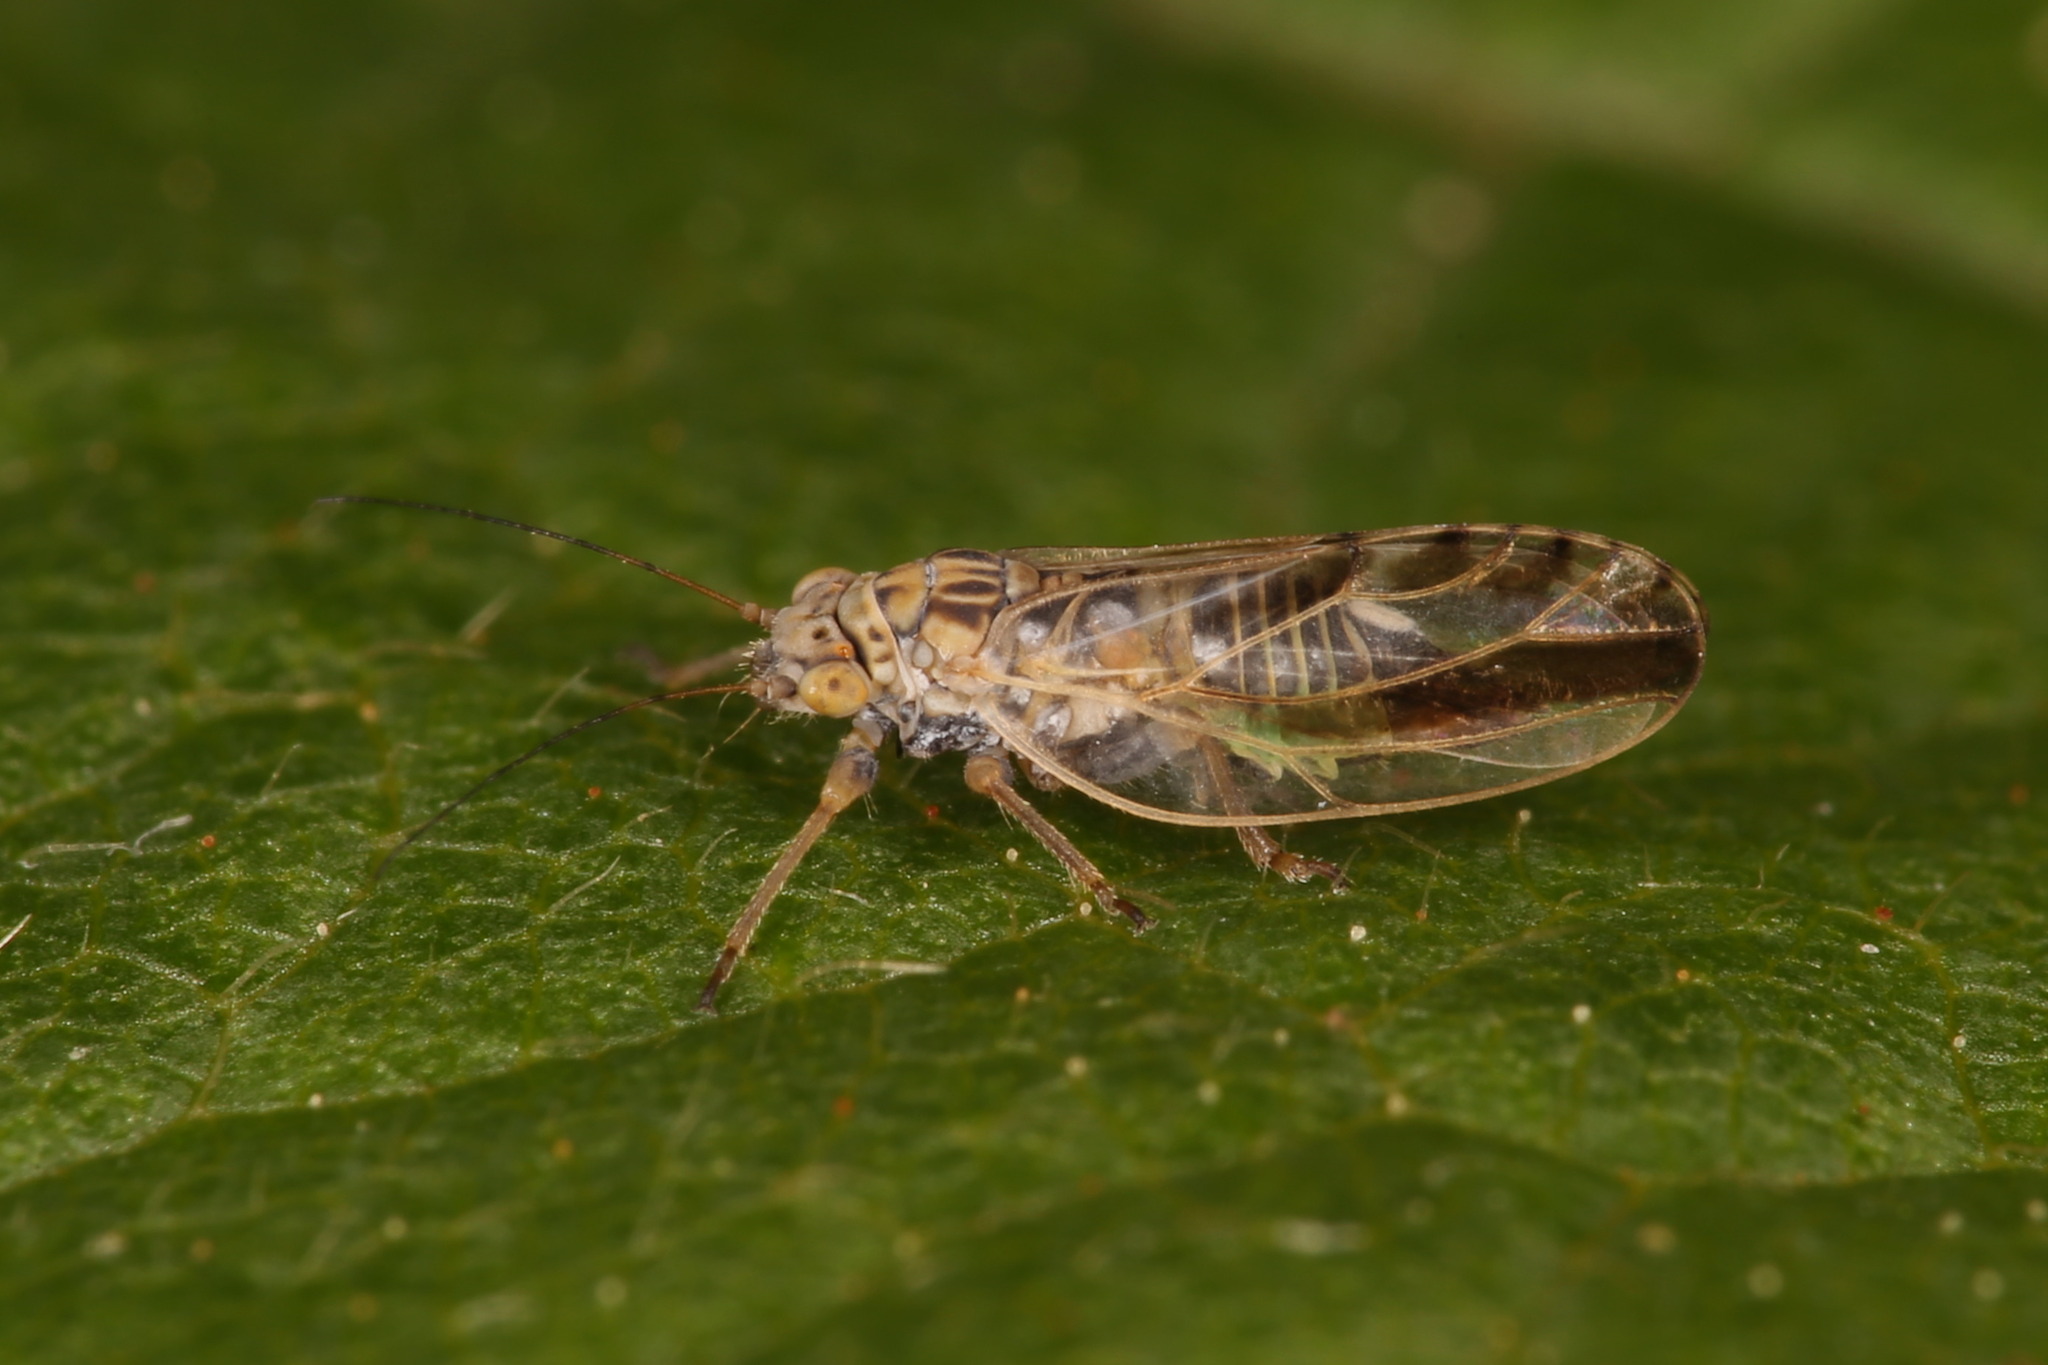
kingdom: Animalia
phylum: Arthropoda
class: Insecta
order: Hemiptera
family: Psyllidae
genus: Arytaina
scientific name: Arytaina genistae
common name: Psyllid
